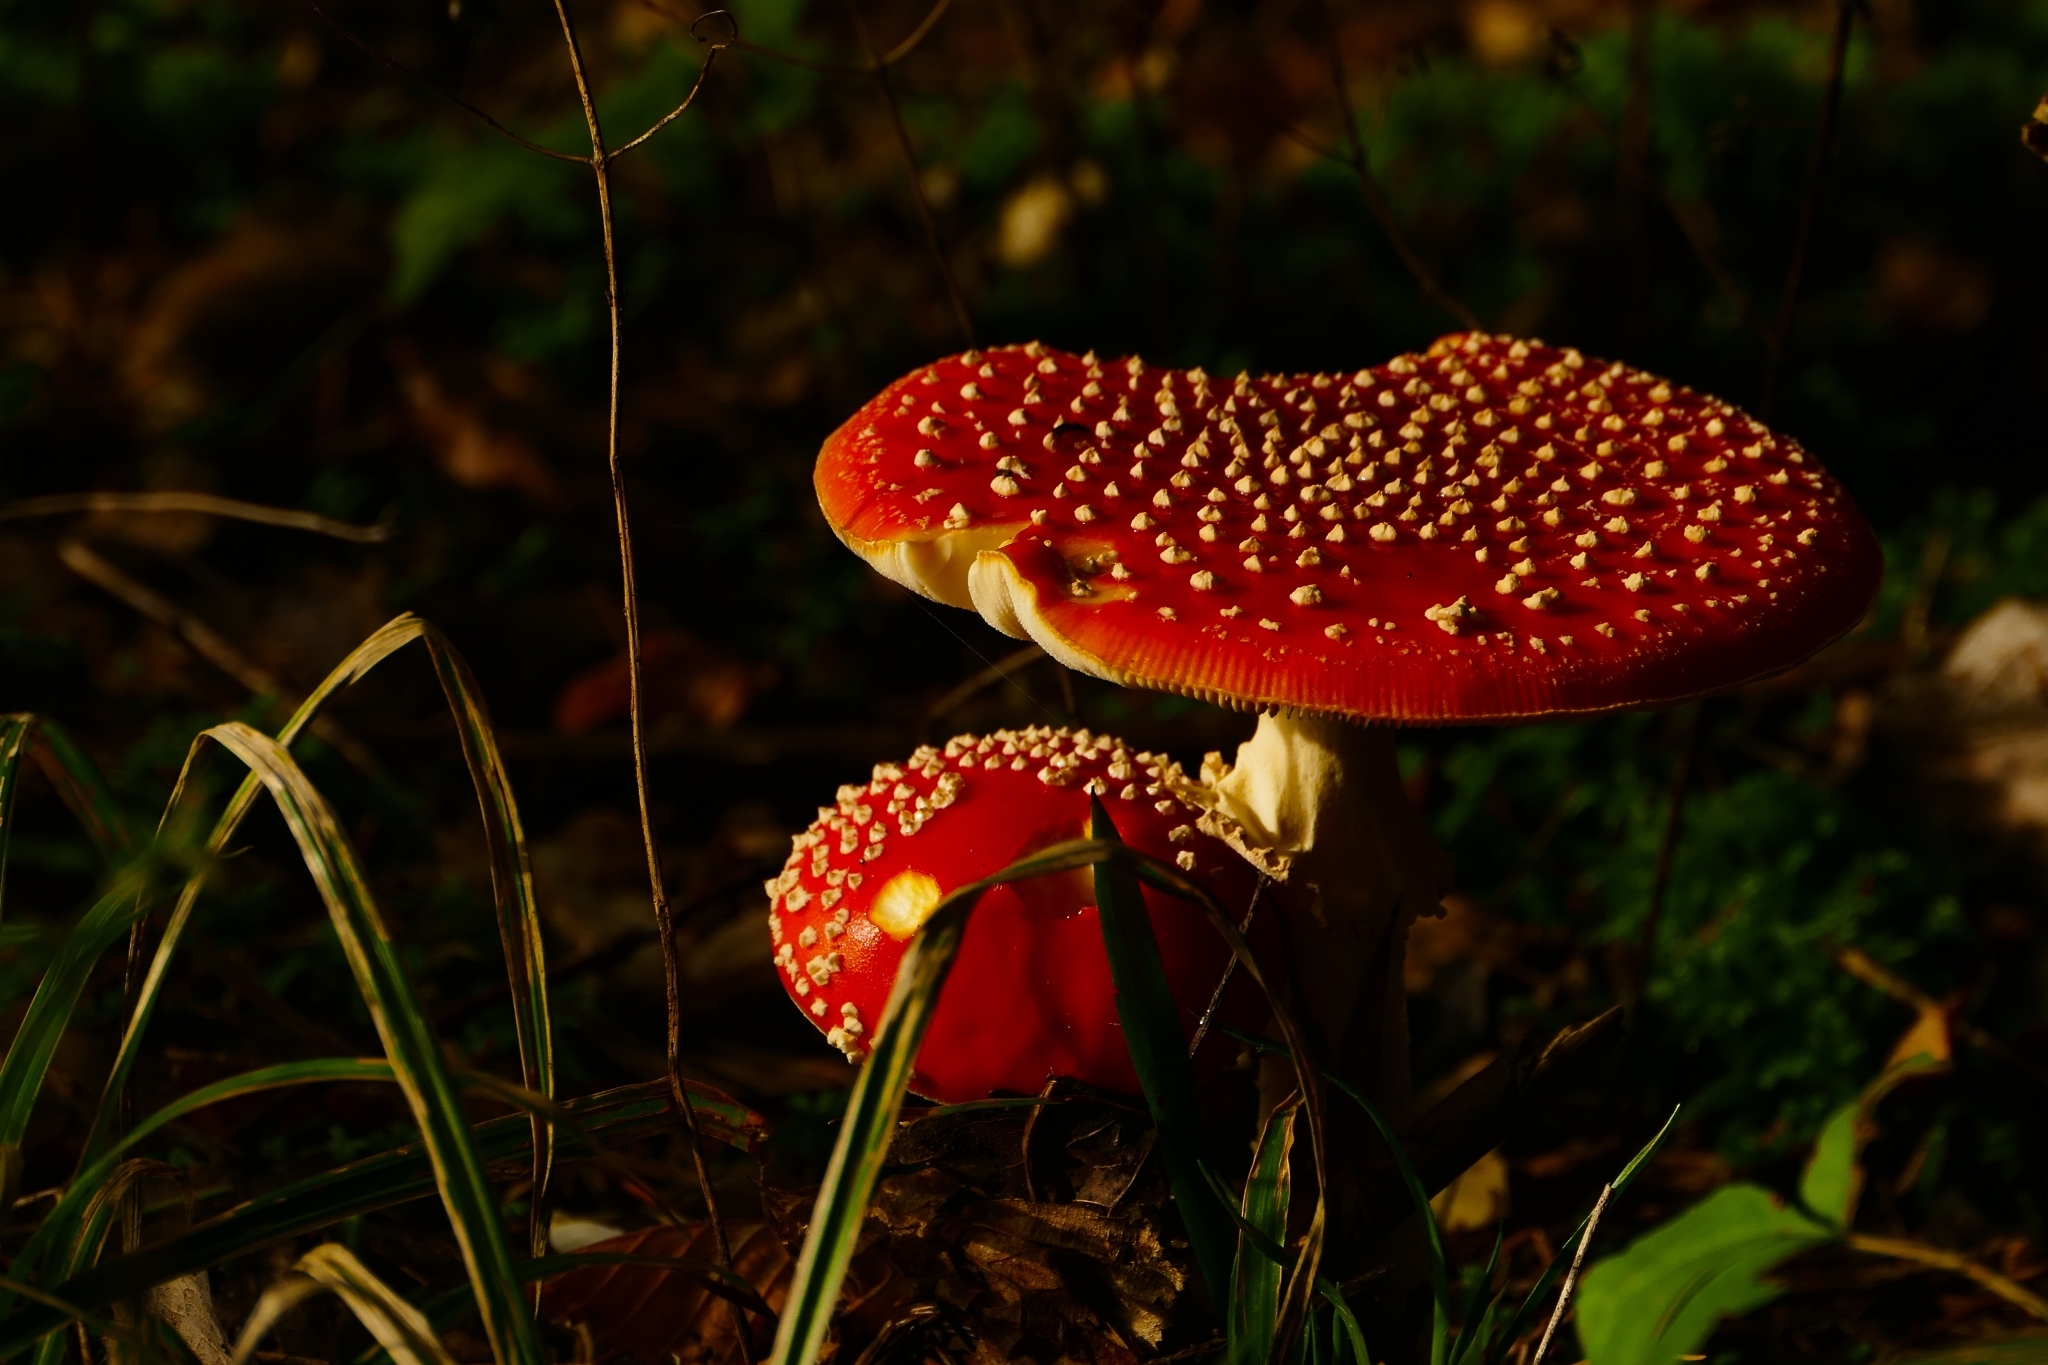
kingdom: Fungi
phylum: Basidiomycota
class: Agaricomycetes
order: Agaricales
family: Amanitaceae
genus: Amanita
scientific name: Amanita muscaria
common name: Fly agaric
